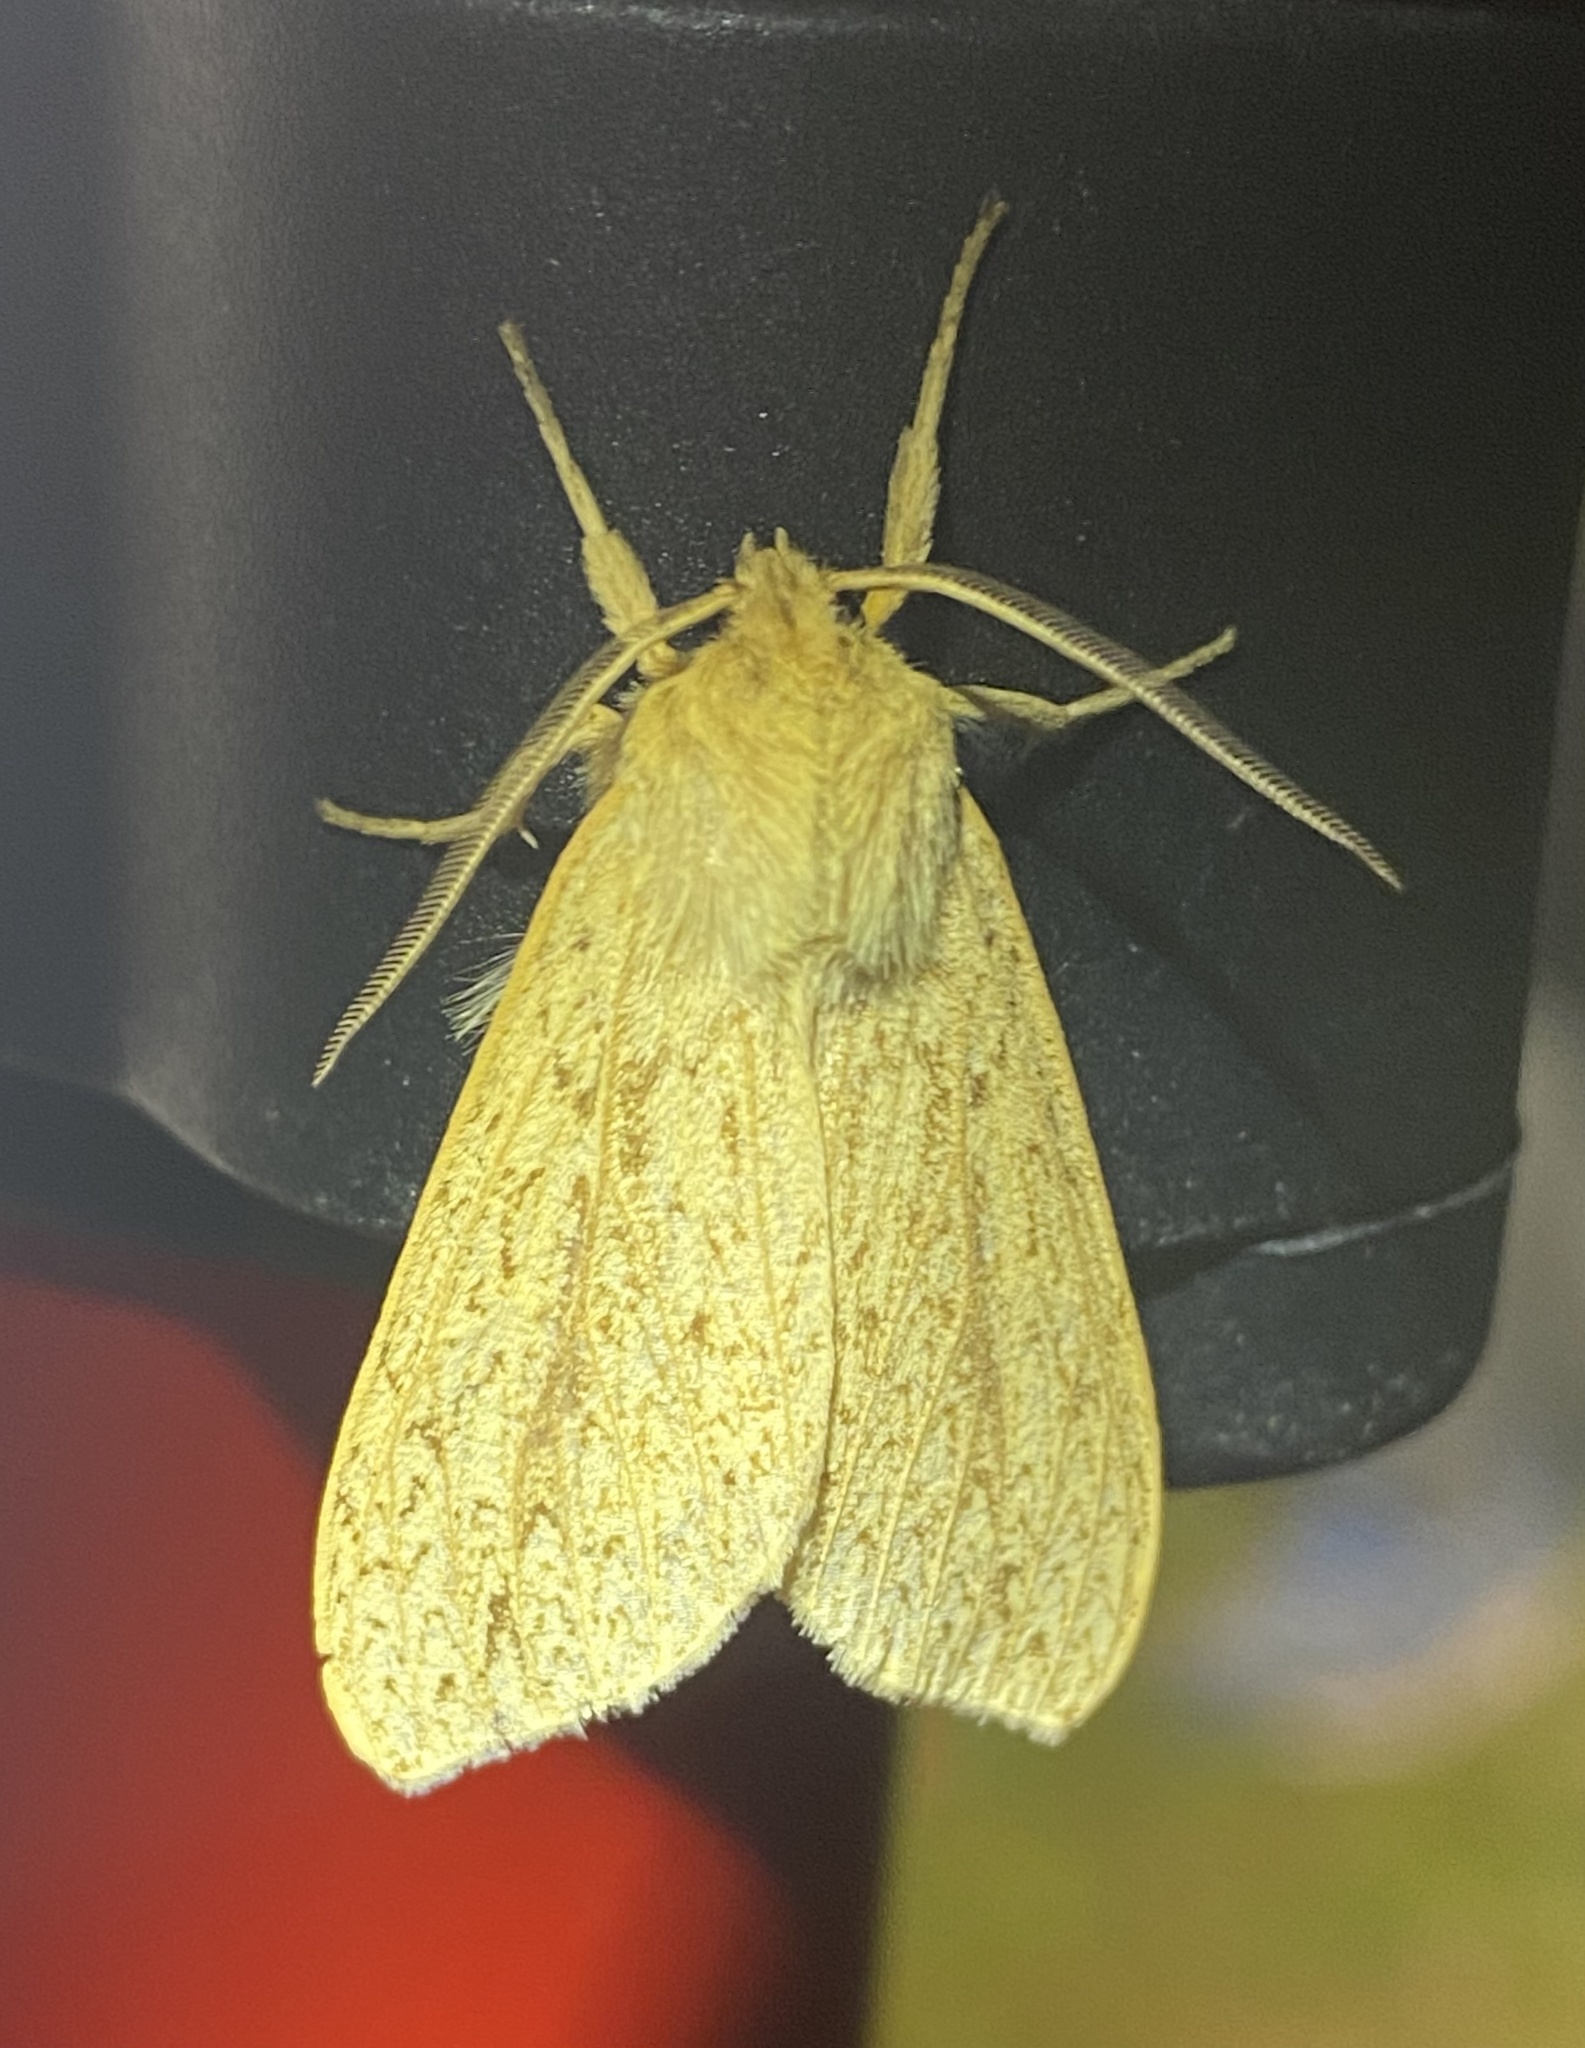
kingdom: Animalia
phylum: Arthropoda
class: Insecta
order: Lepidoptera
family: Erebidae
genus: Leucanopsis
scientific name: Leucanopsis longa
